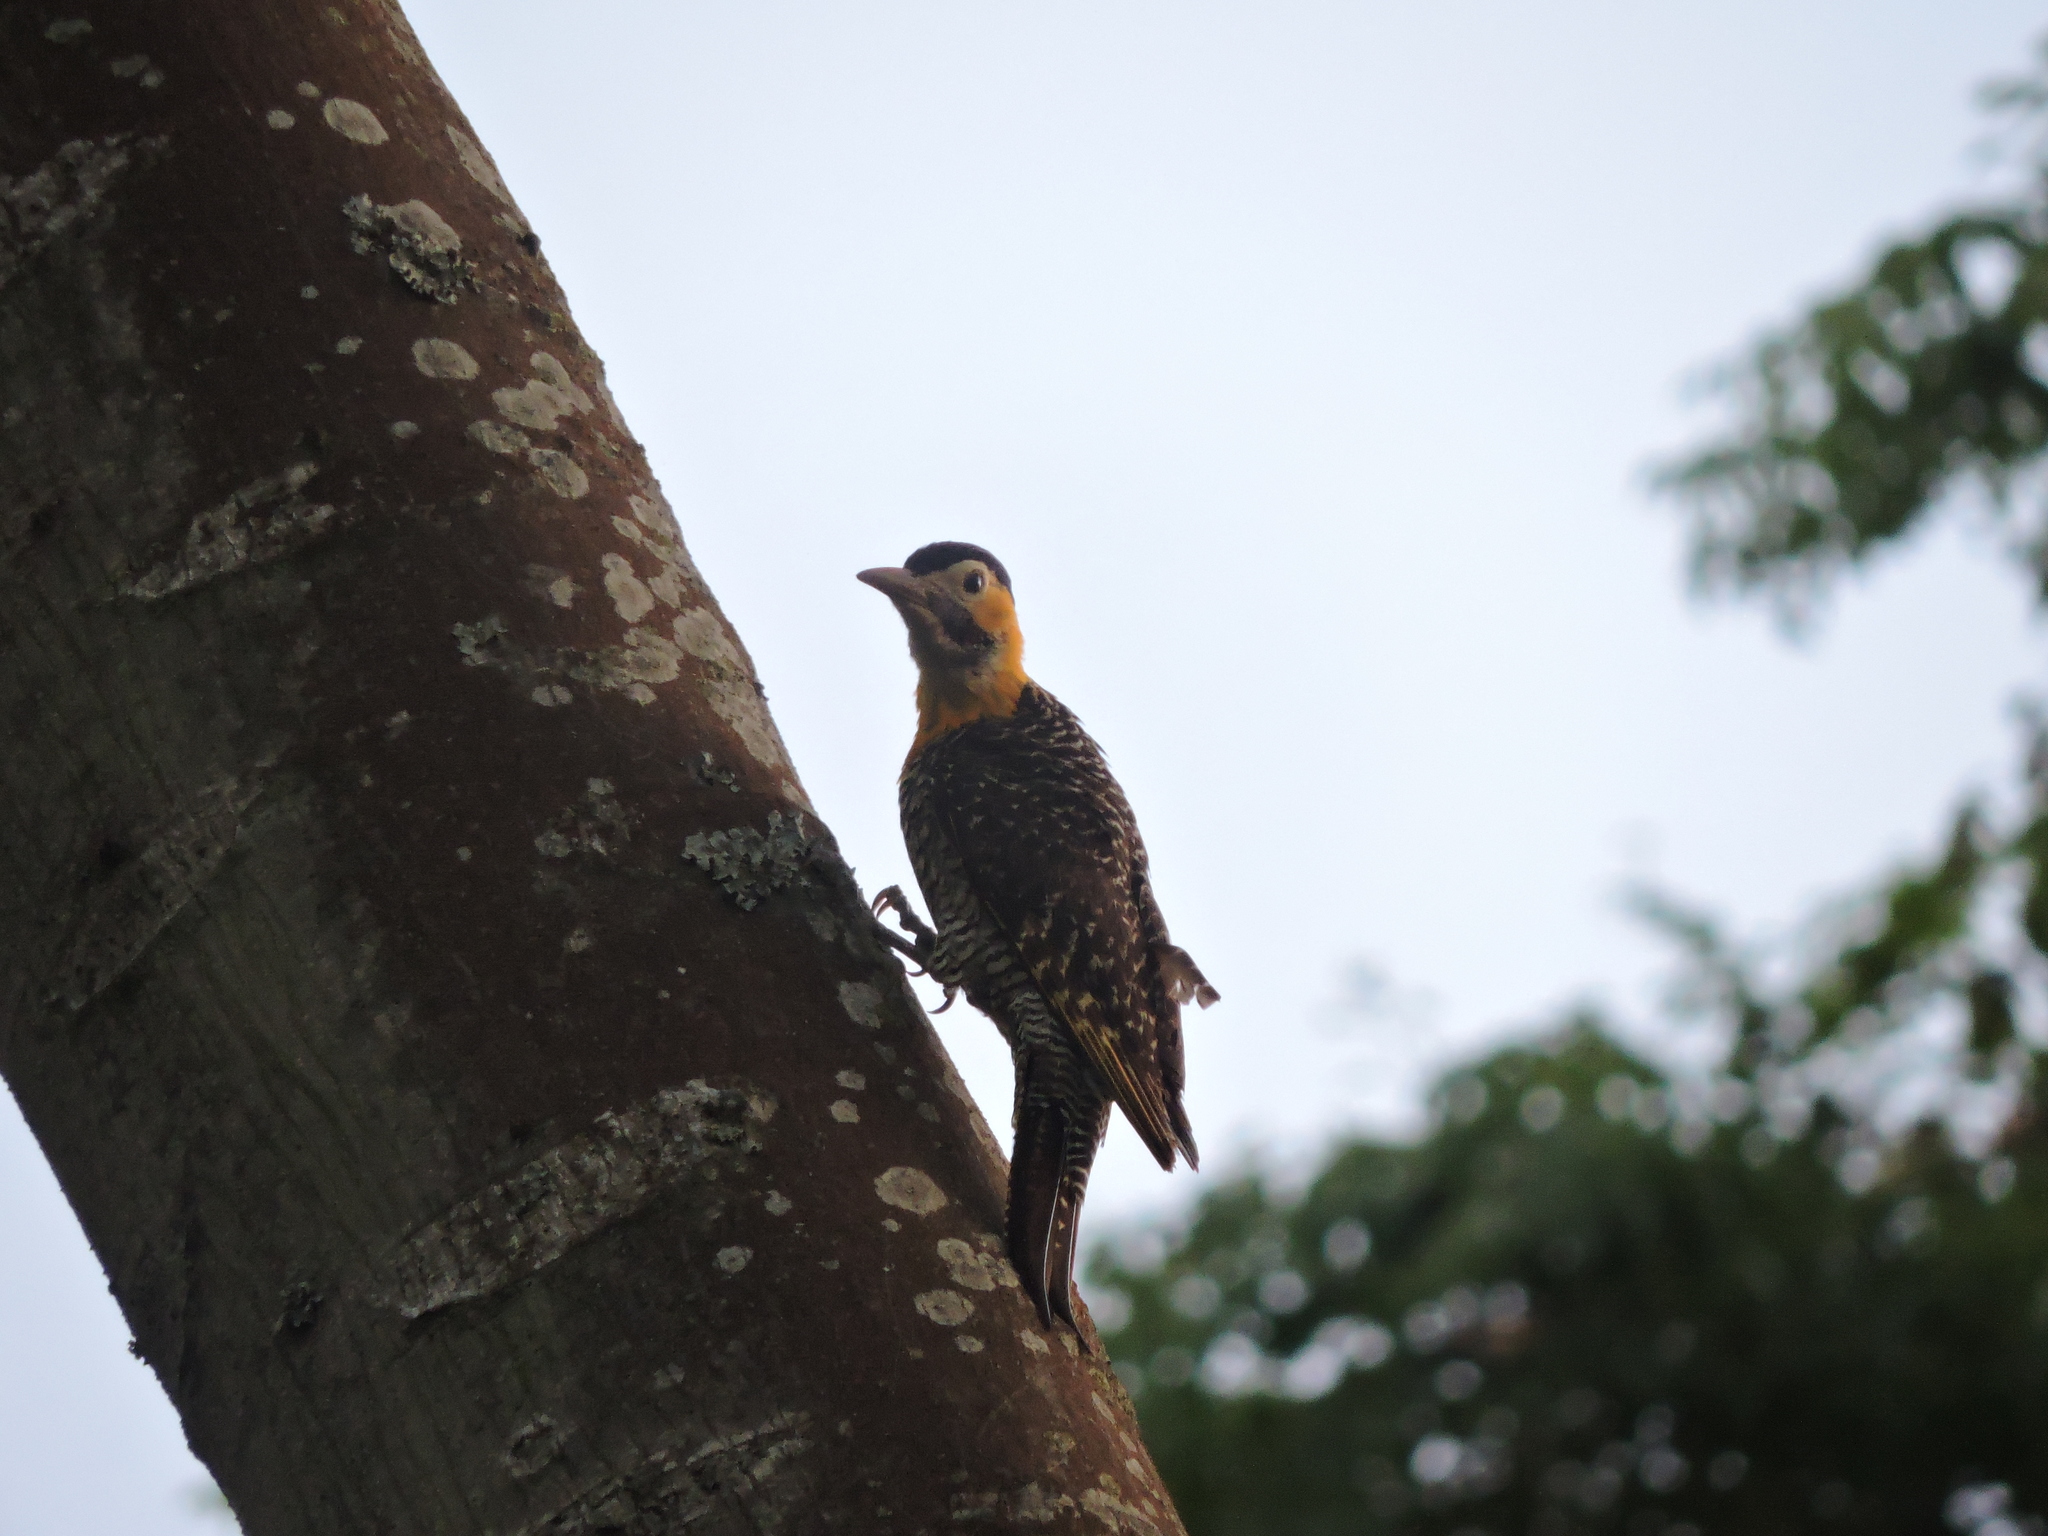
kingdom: Animalia
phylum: Chordata
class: Aves
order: Piciformes
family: Picidae
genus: Colaptes
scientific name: Colaptes campestris
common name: Campo flicker
